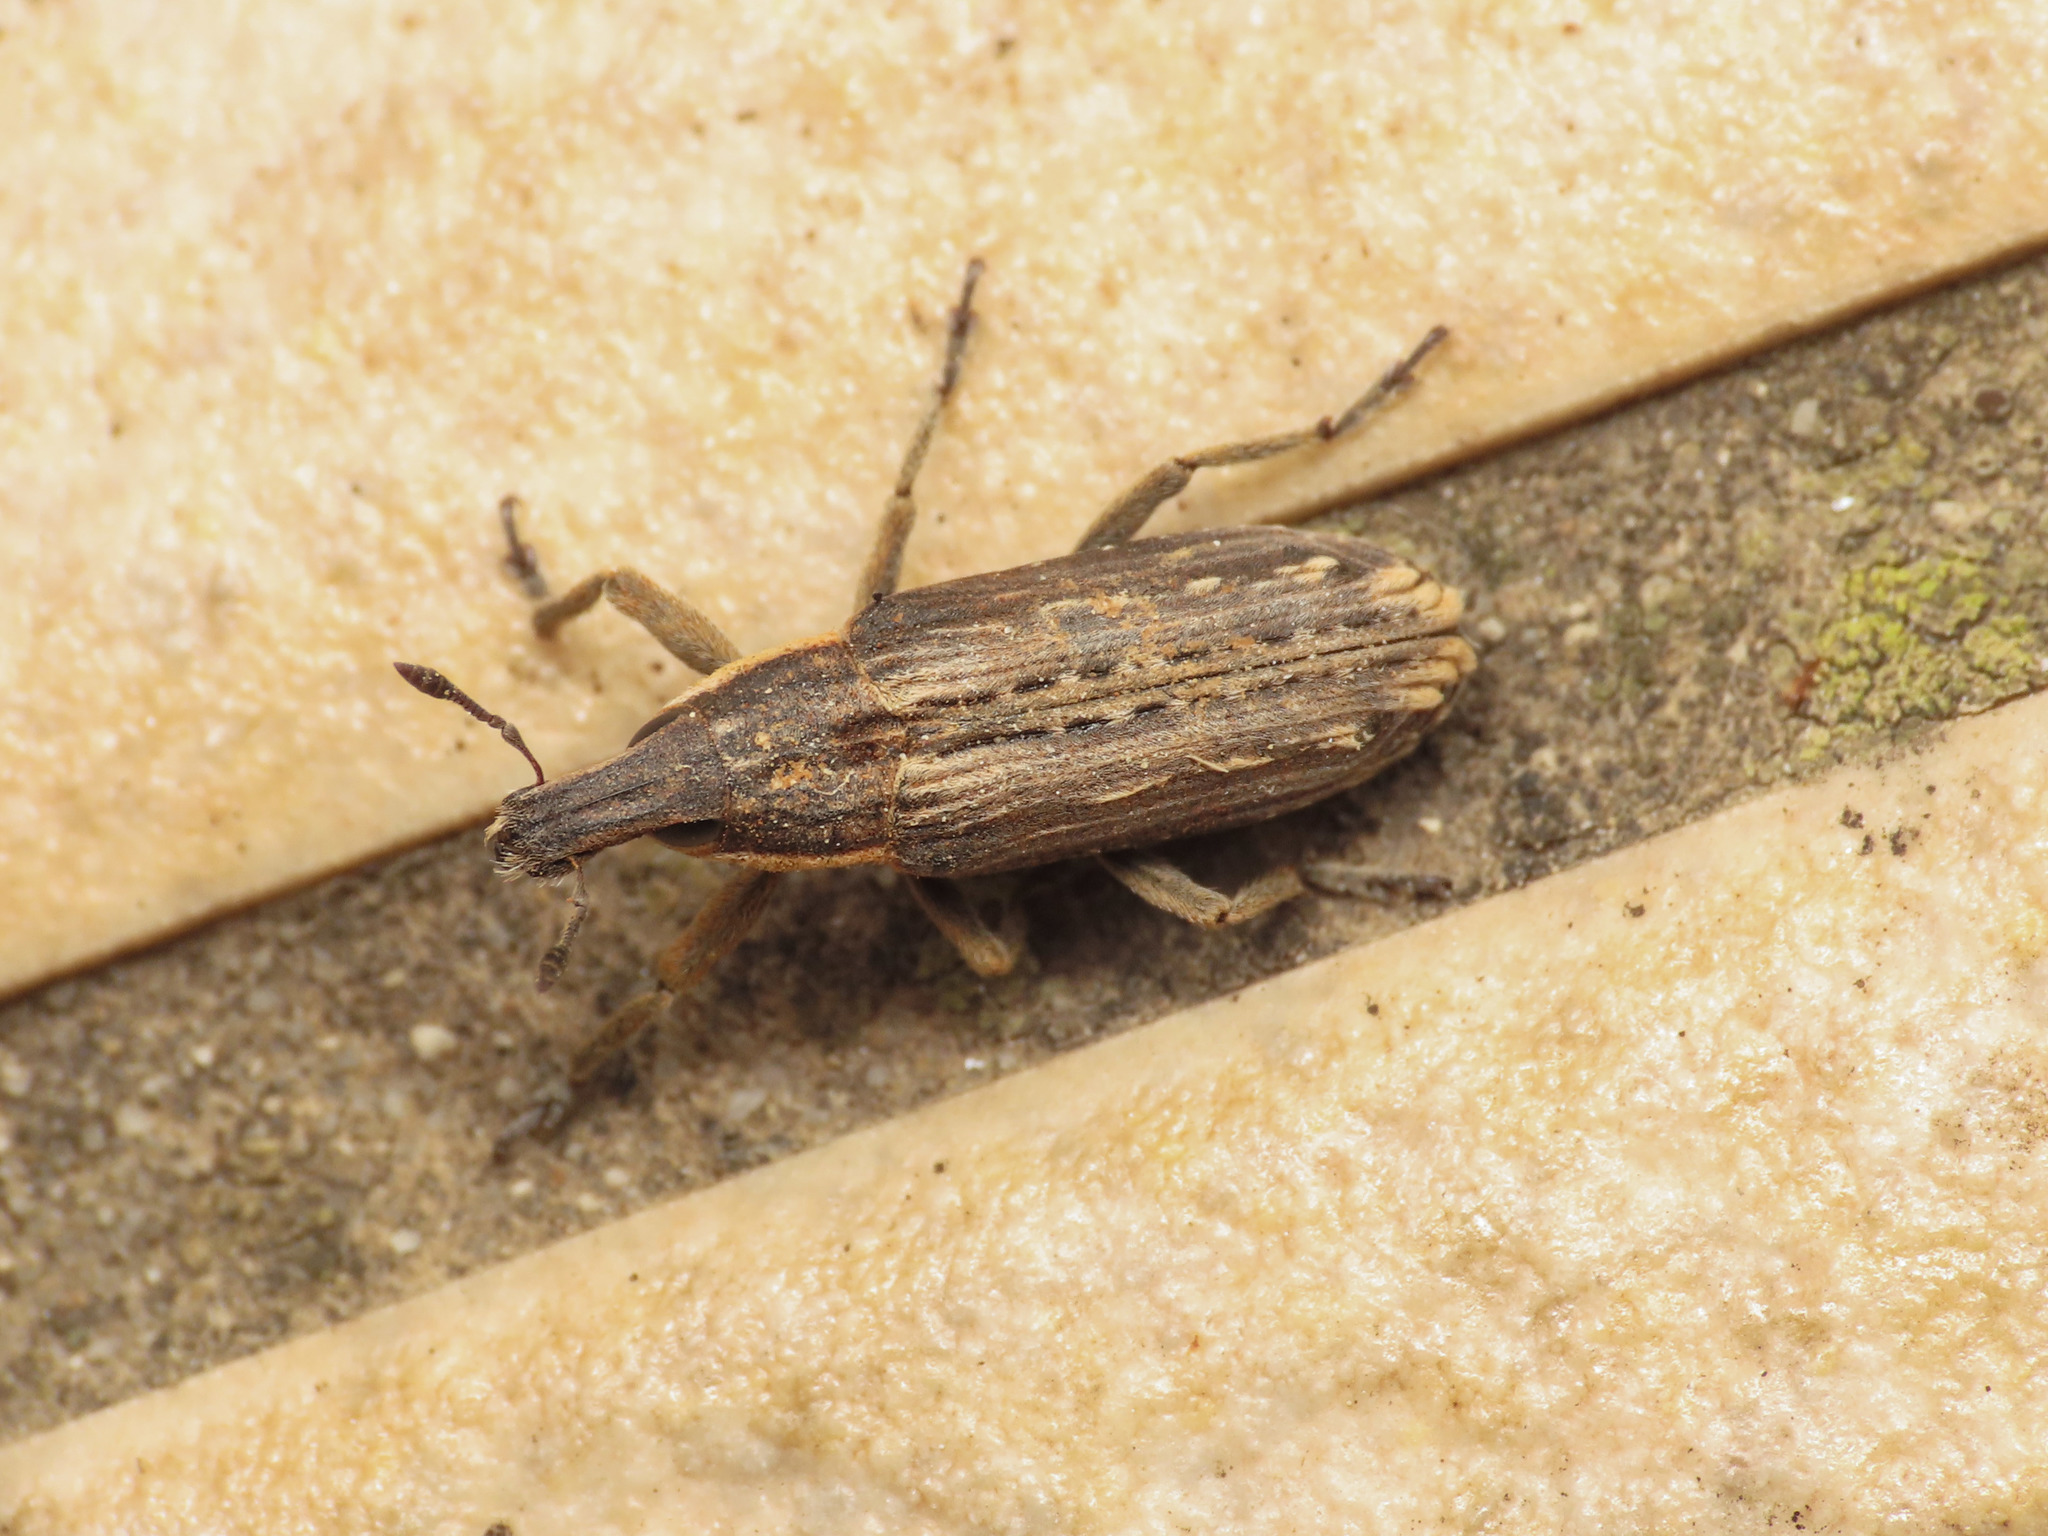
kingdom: Animalia
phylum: Arthropoda
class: Insecta
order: Coleoptera
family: Curculionidae
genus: Mecaspis
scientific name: Mecaspis emarginata
